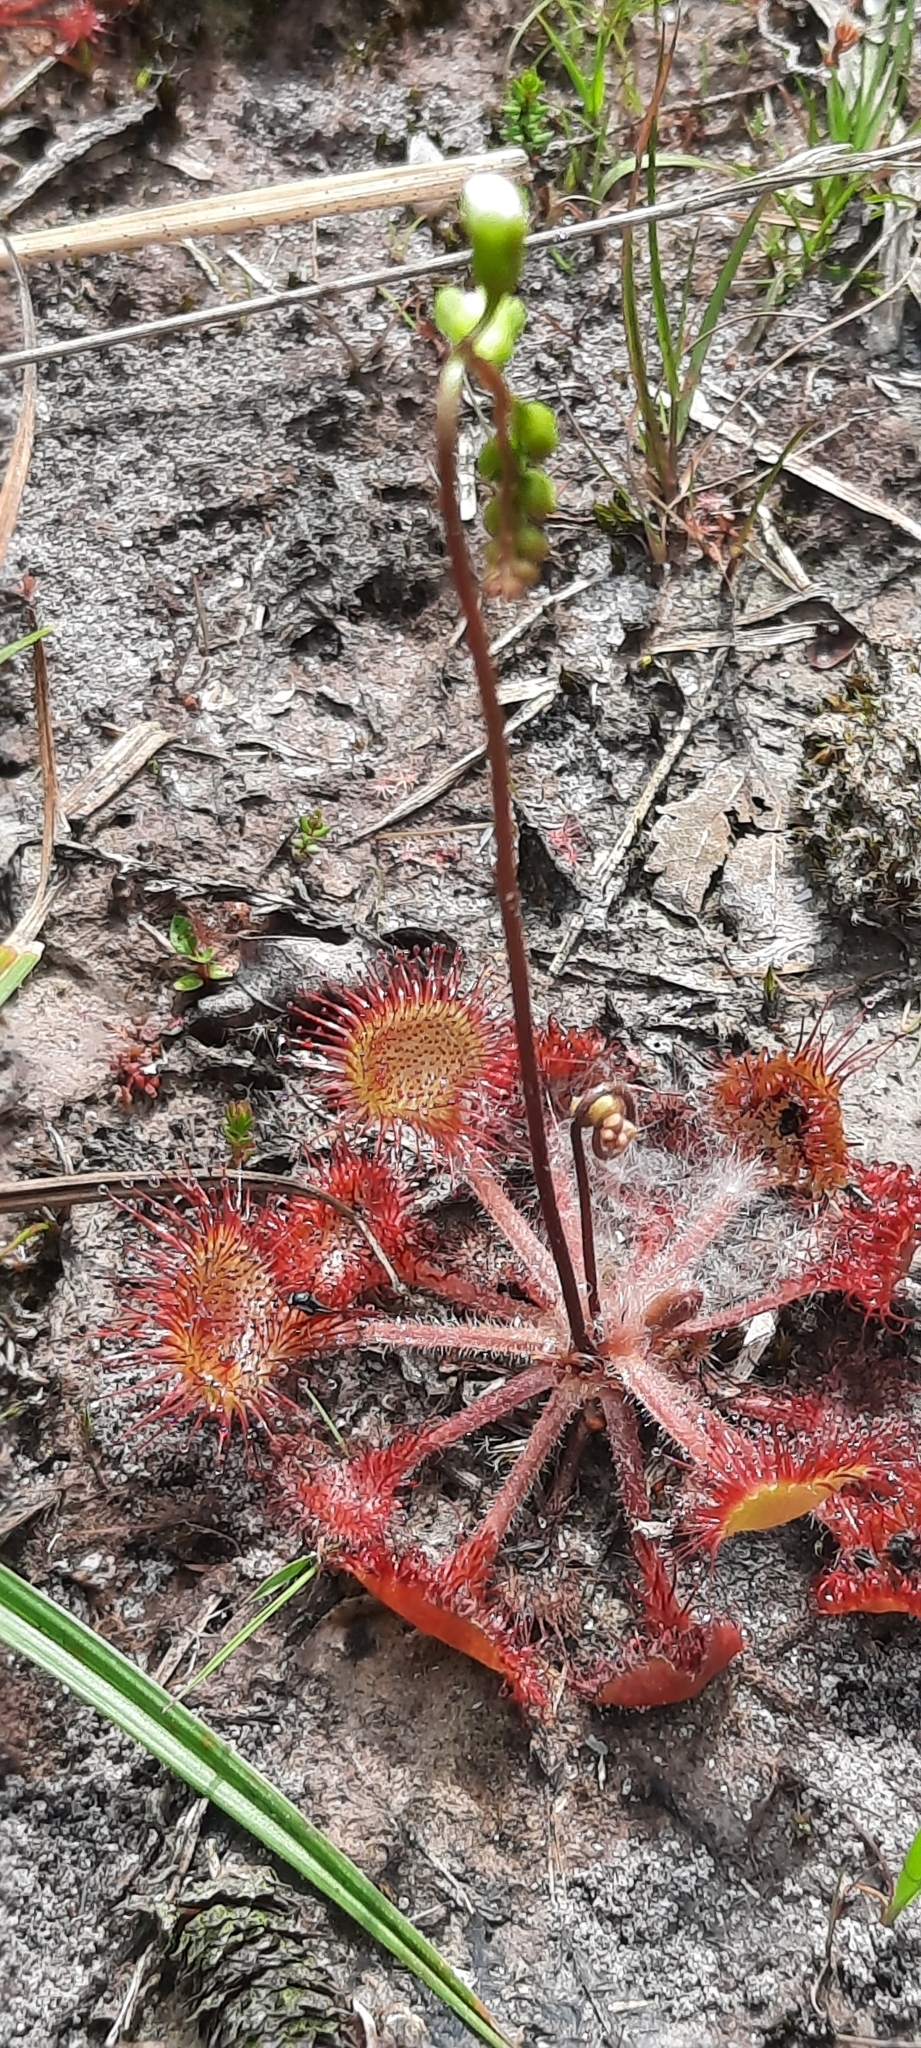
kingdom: Plantae
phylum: Tracheophyta
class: Magnoliopsida
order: Caryophyllales
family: Droseraceae
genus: Drosera
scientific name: Drosera rotundifolia
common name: Round-leaved sundew
